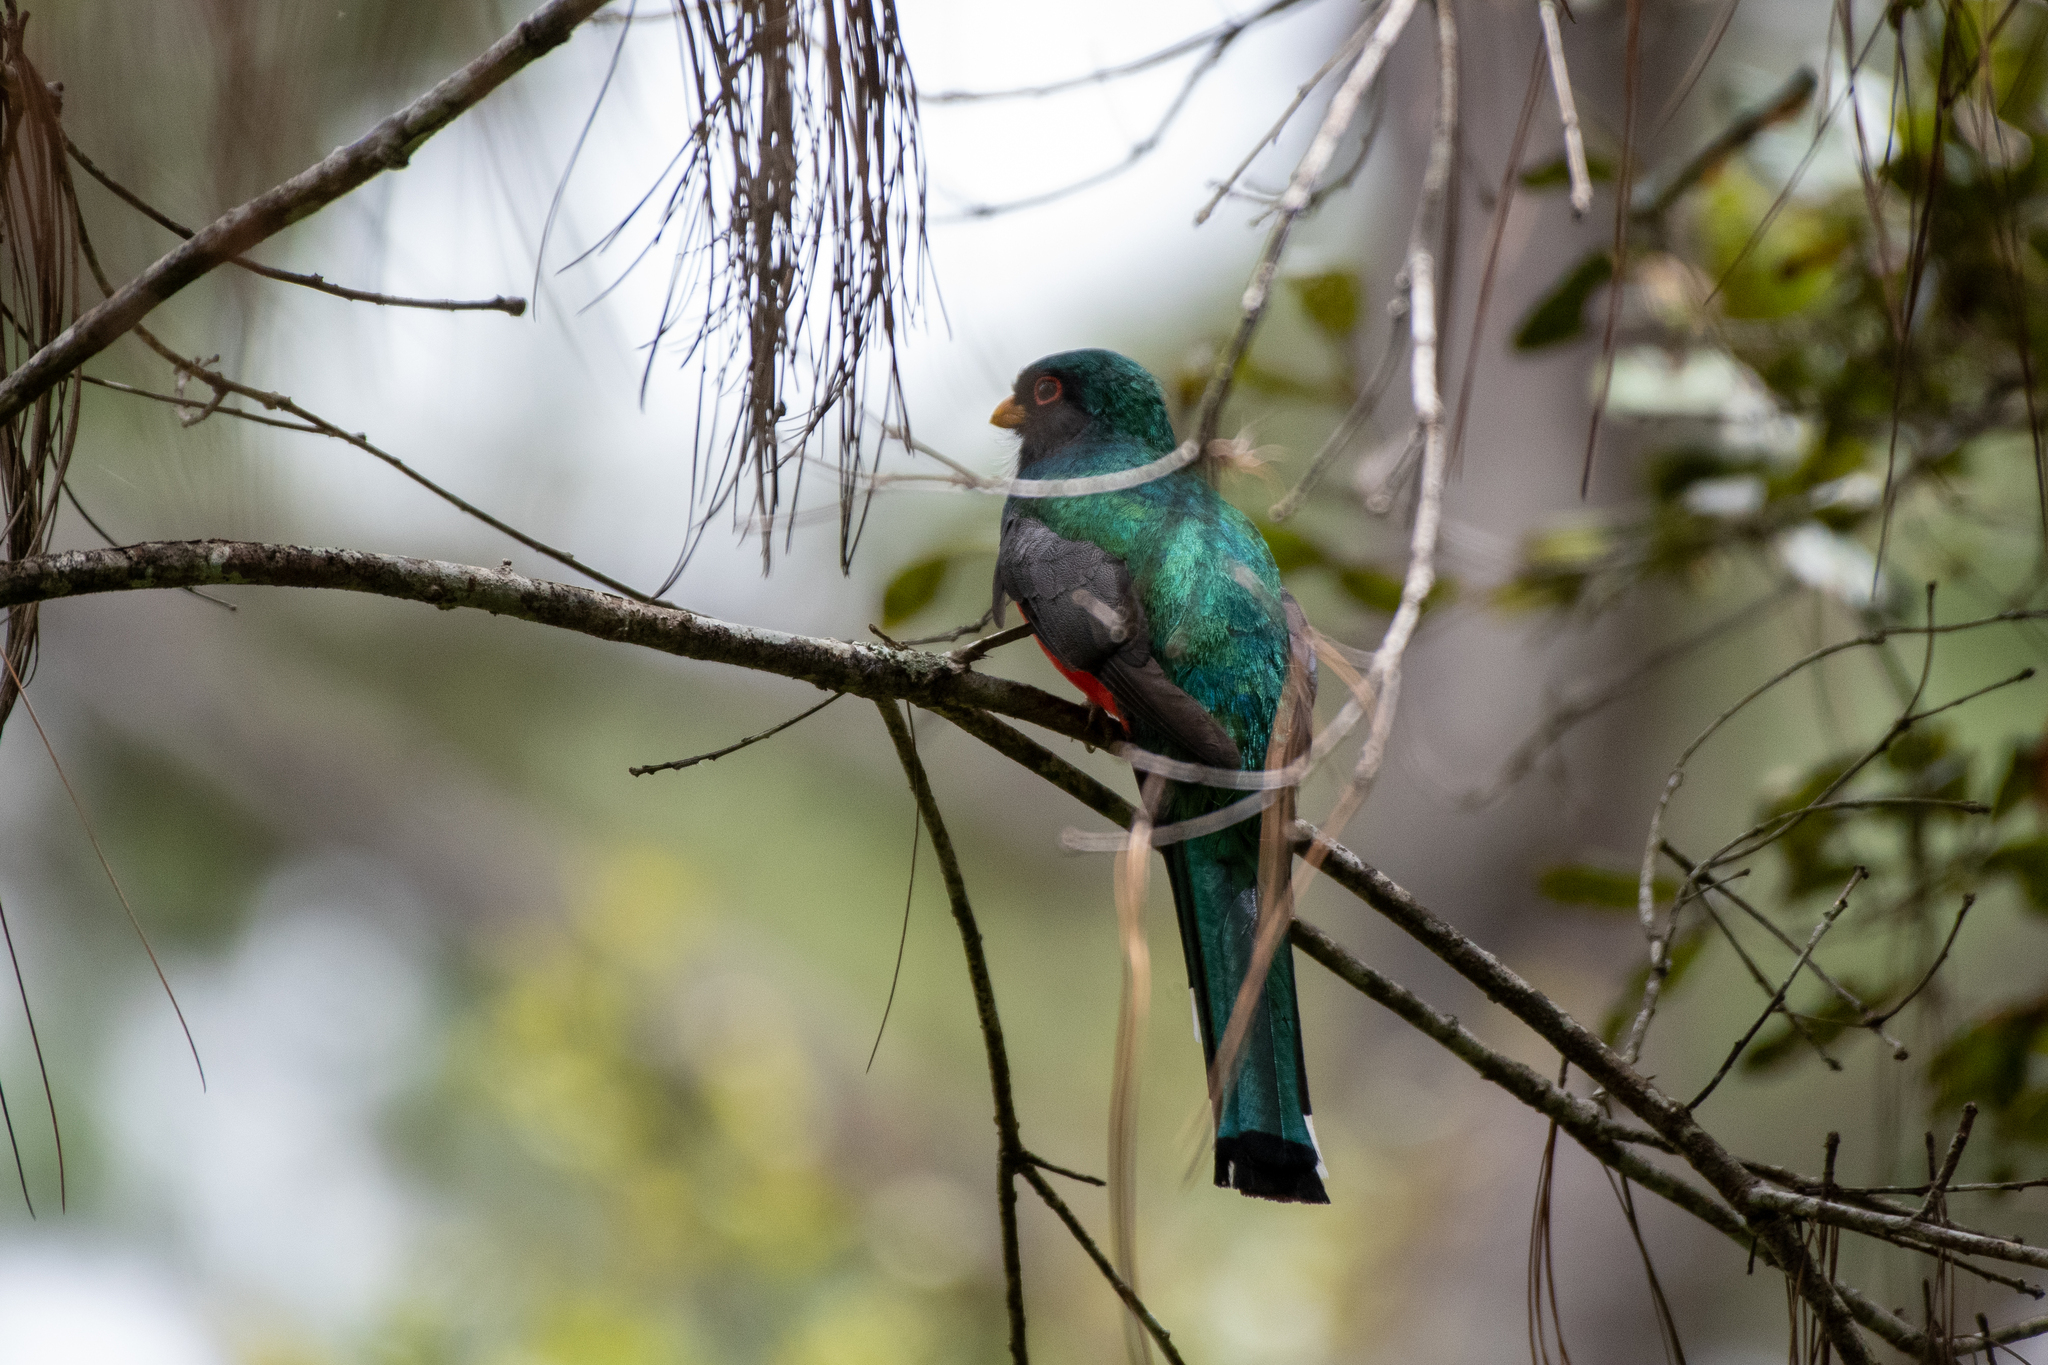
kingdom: Animalia
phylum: Chordata
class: Aves
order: Trogoniformes
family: Trogonidae
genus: Trogon
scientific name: Trogon mexicanus
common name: Mountain trogon
